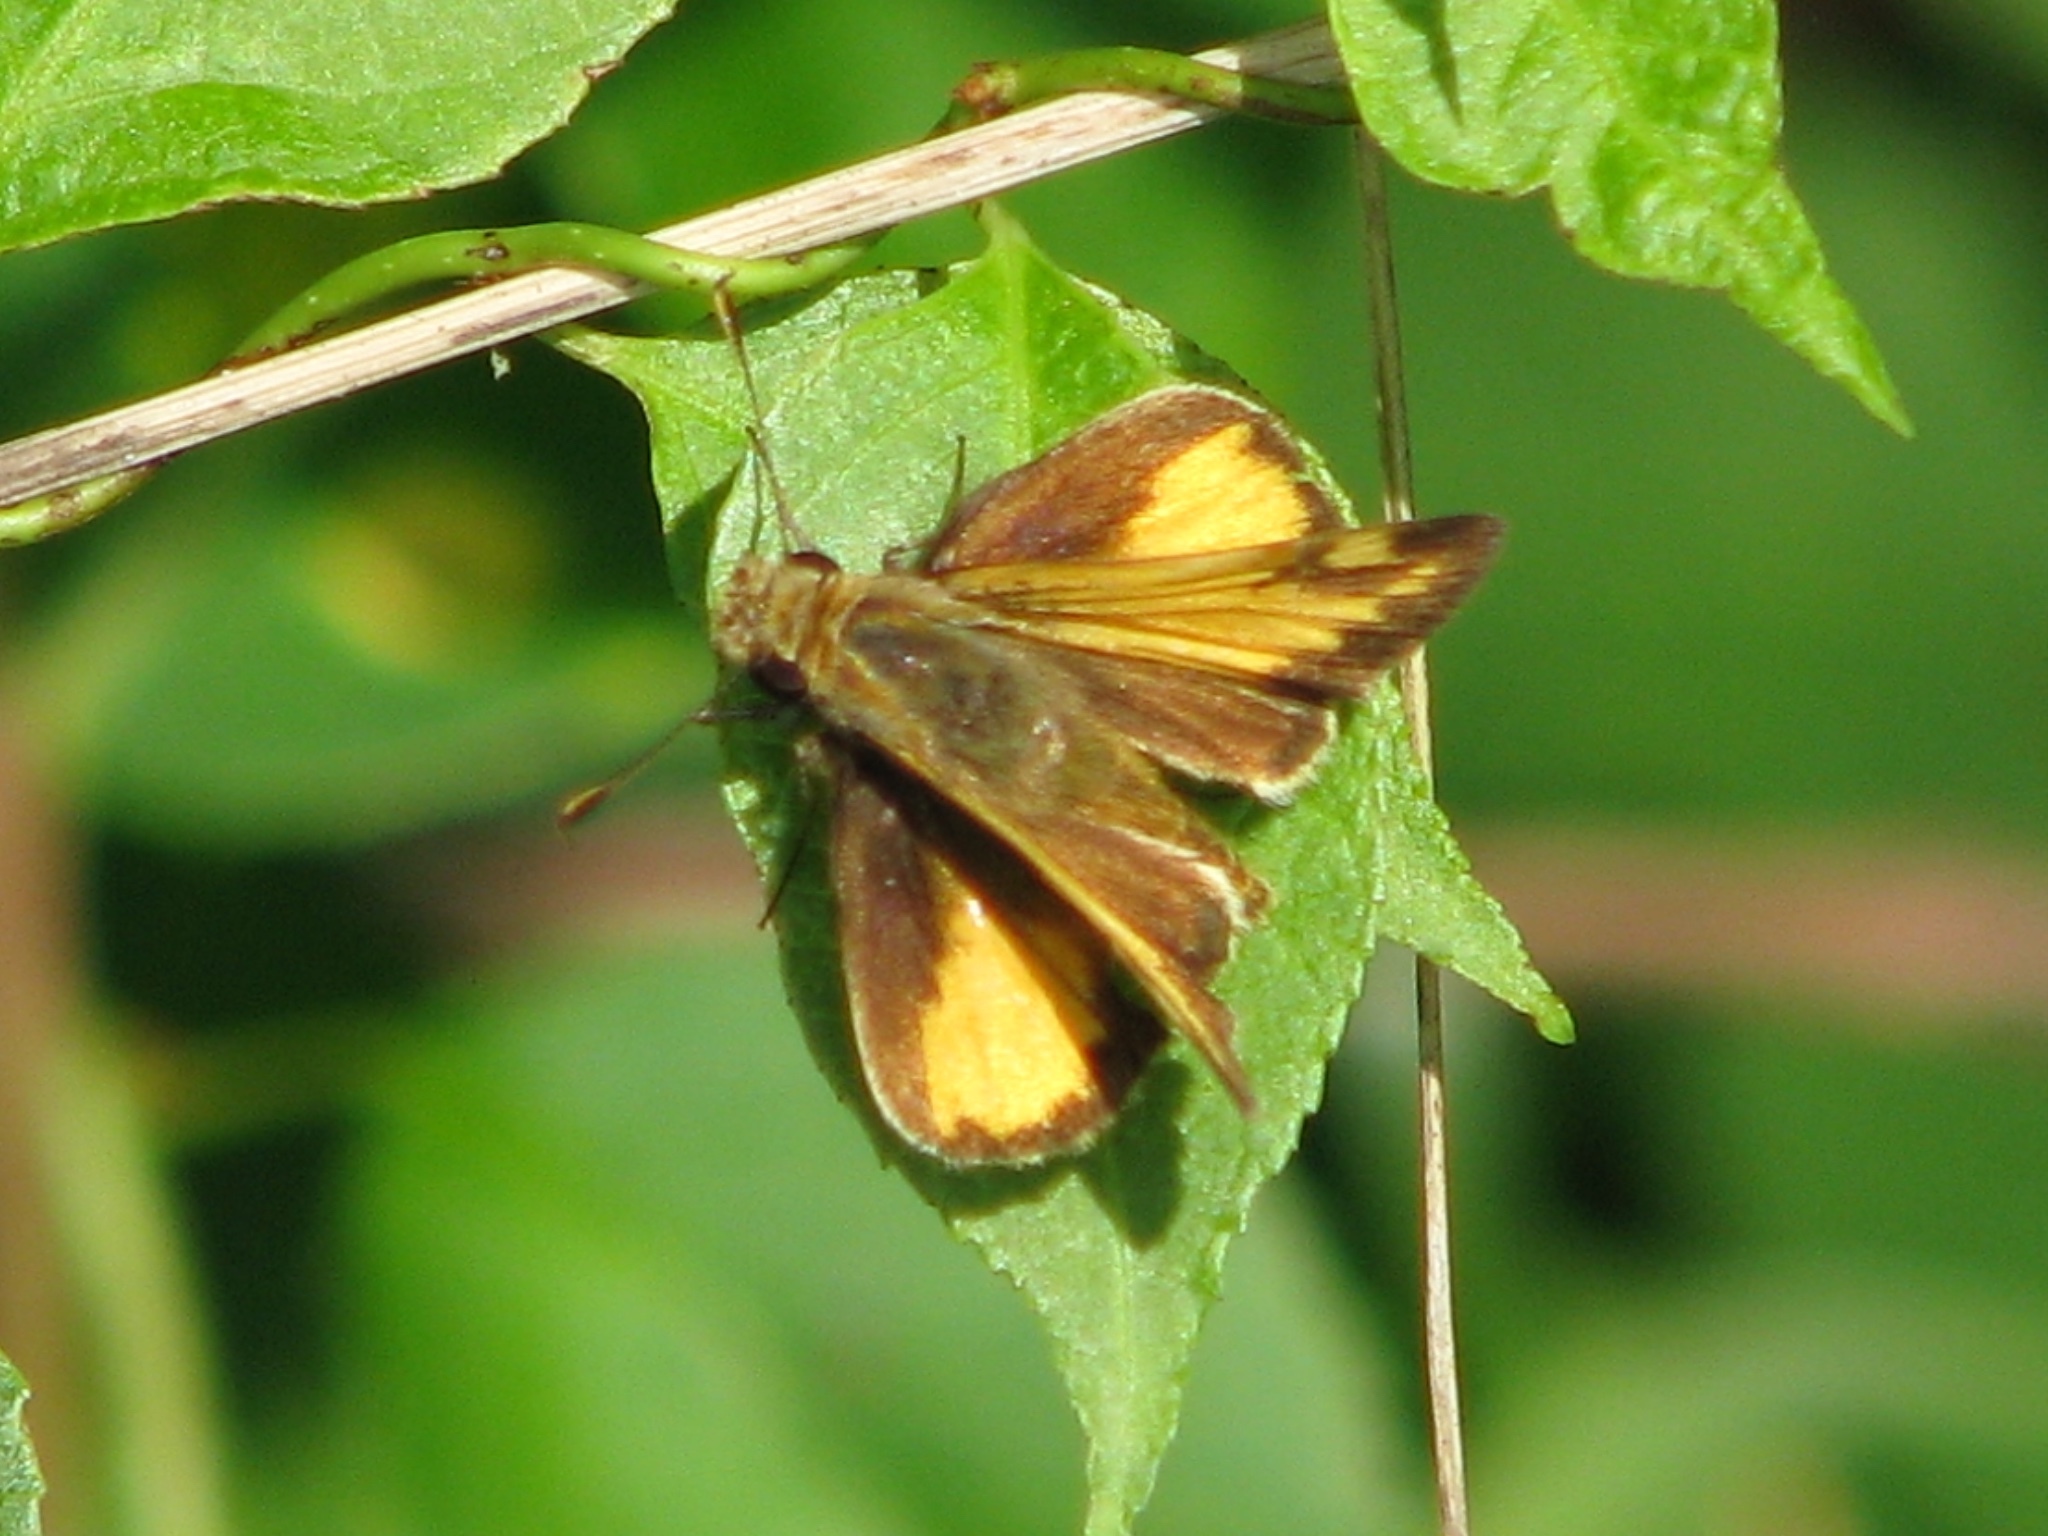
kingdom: Animalia
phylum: Arthropoda
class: Insecta
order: Lepidoptera
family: Hesperiidae
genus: Lon
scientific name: Lon zabulon
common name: Zabulon skipper
